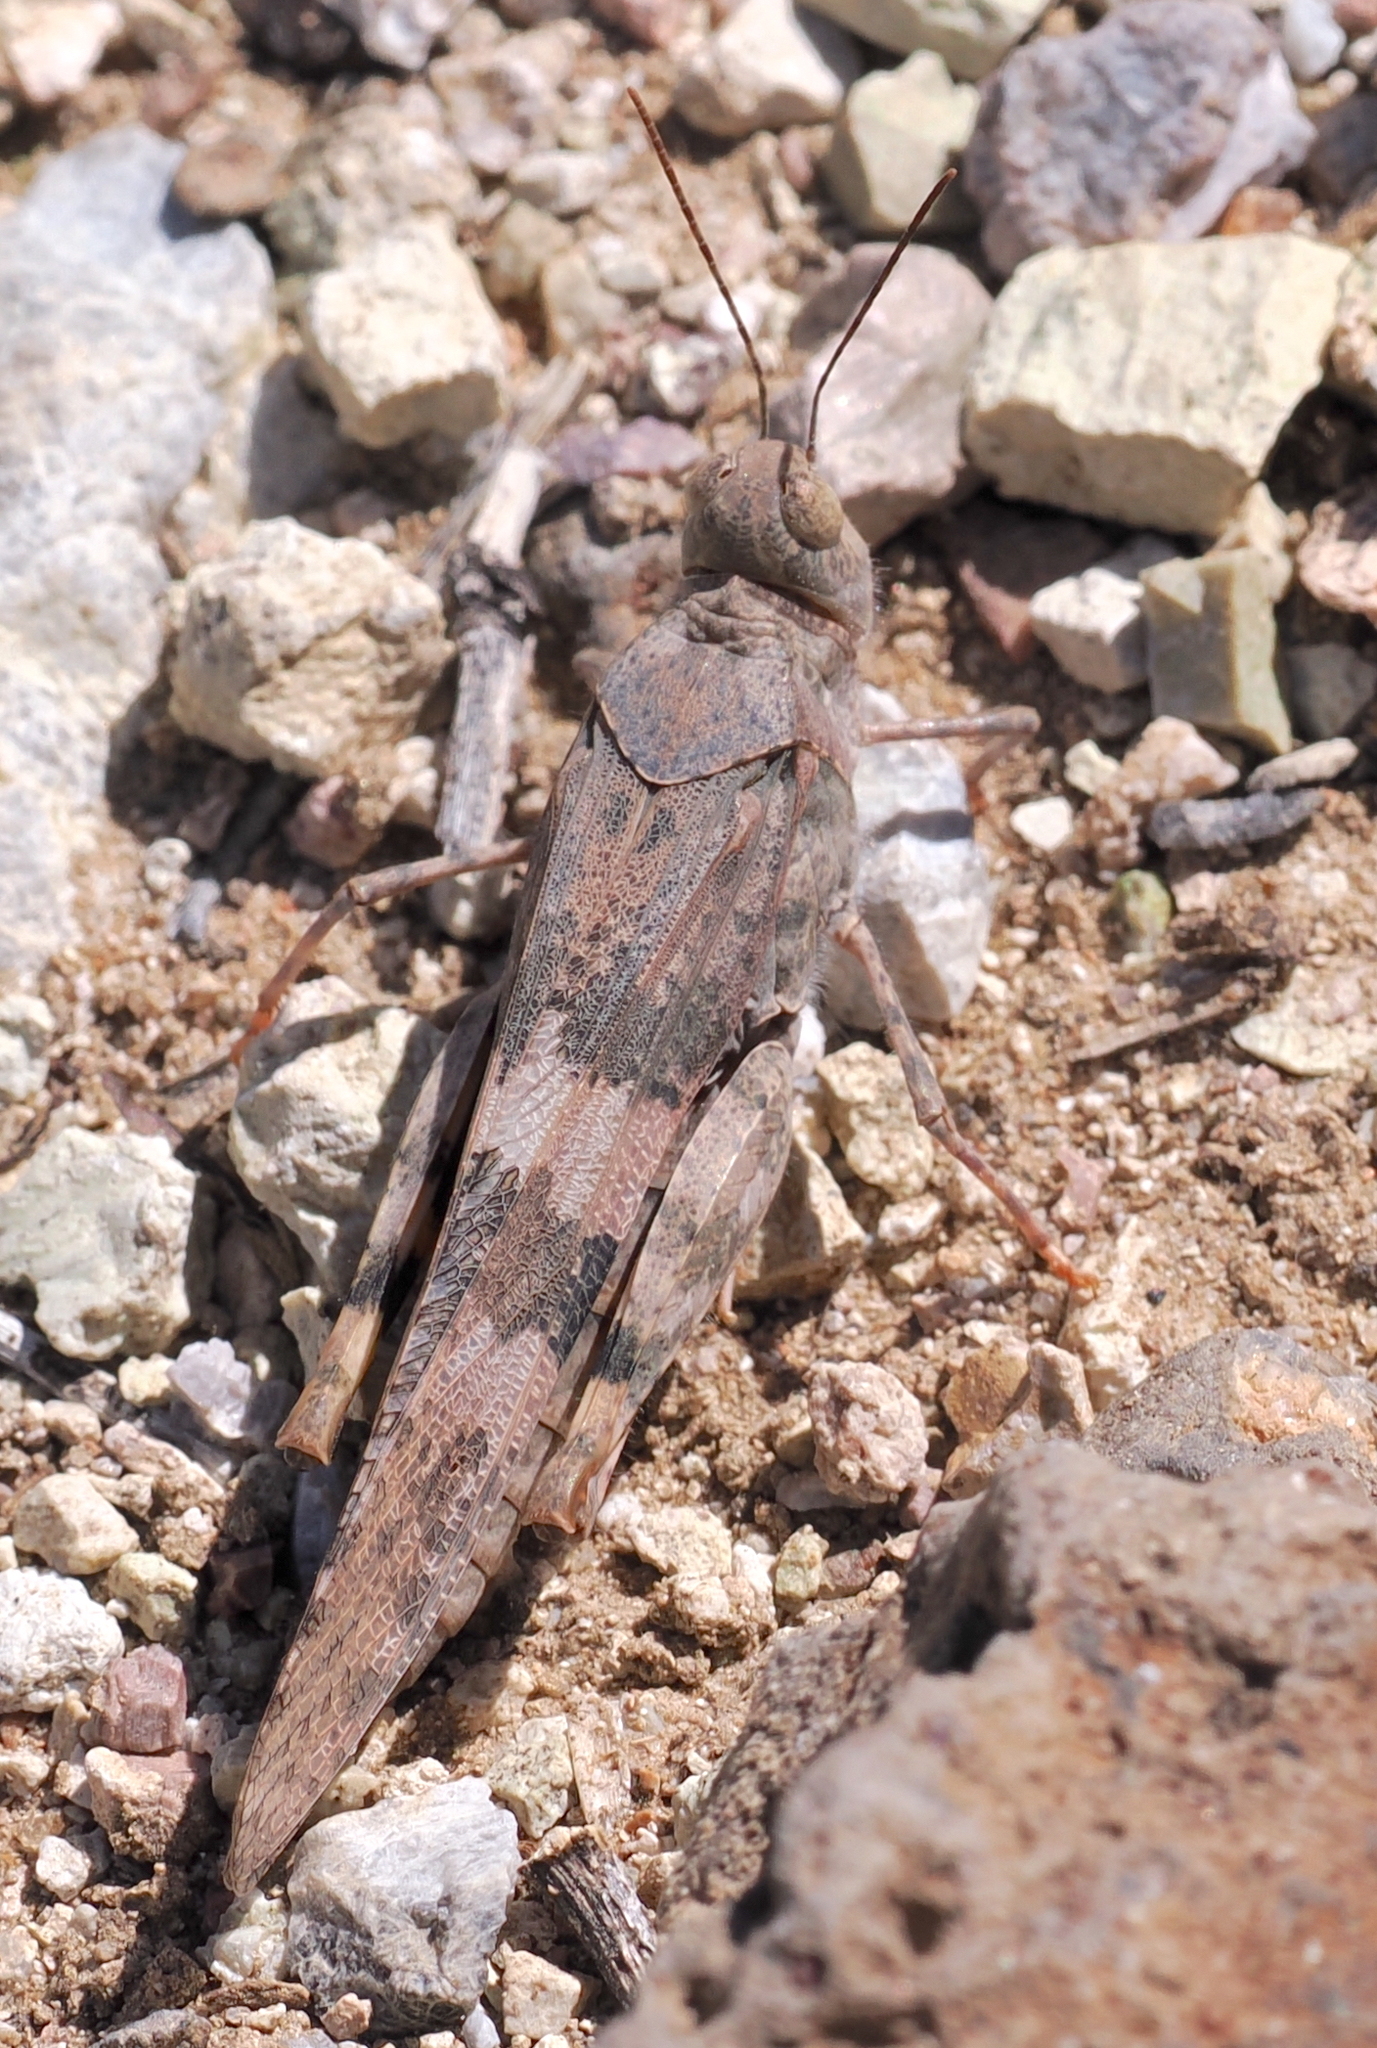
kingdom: Animalia
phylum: Arthropoda
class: Insecta
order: Orthoptera
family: Acrididae
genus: Trimerotropis
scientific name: Trimerotropis pallidipennis
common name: Pallid-winged grasshopper
